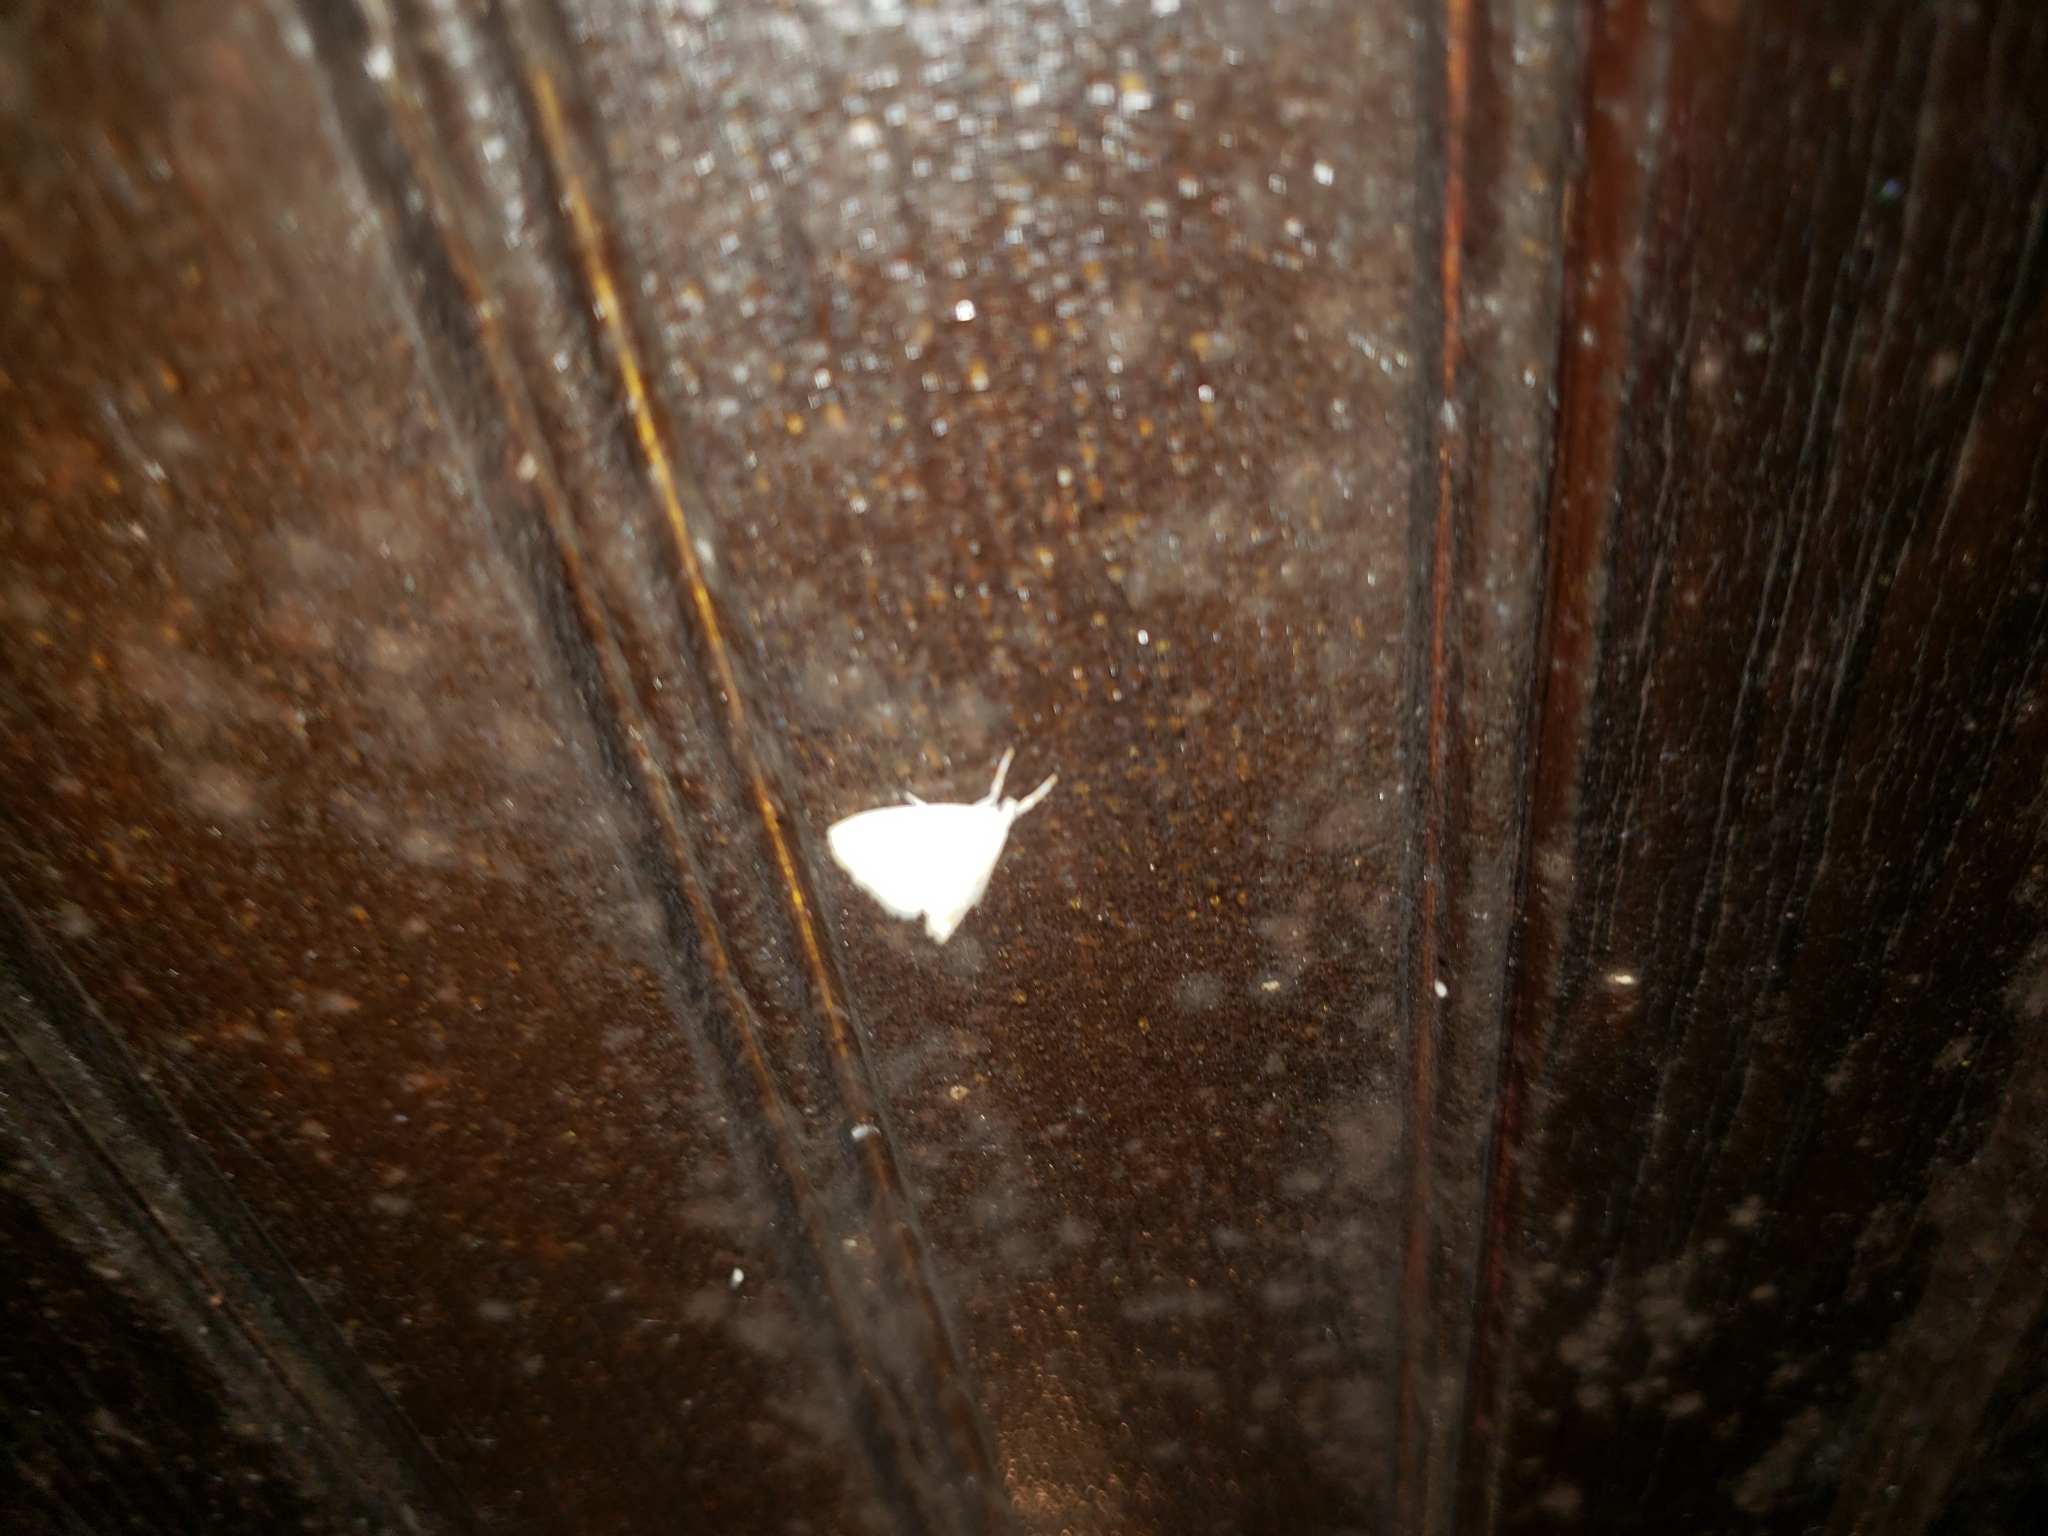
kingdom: Animalia
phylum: Arthropoda
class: Insecta
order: Lepidoptera
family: Tortricidae
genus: Cenopis
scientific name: Cenopis diluticostana
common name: Spring dead-leaf roller moth
